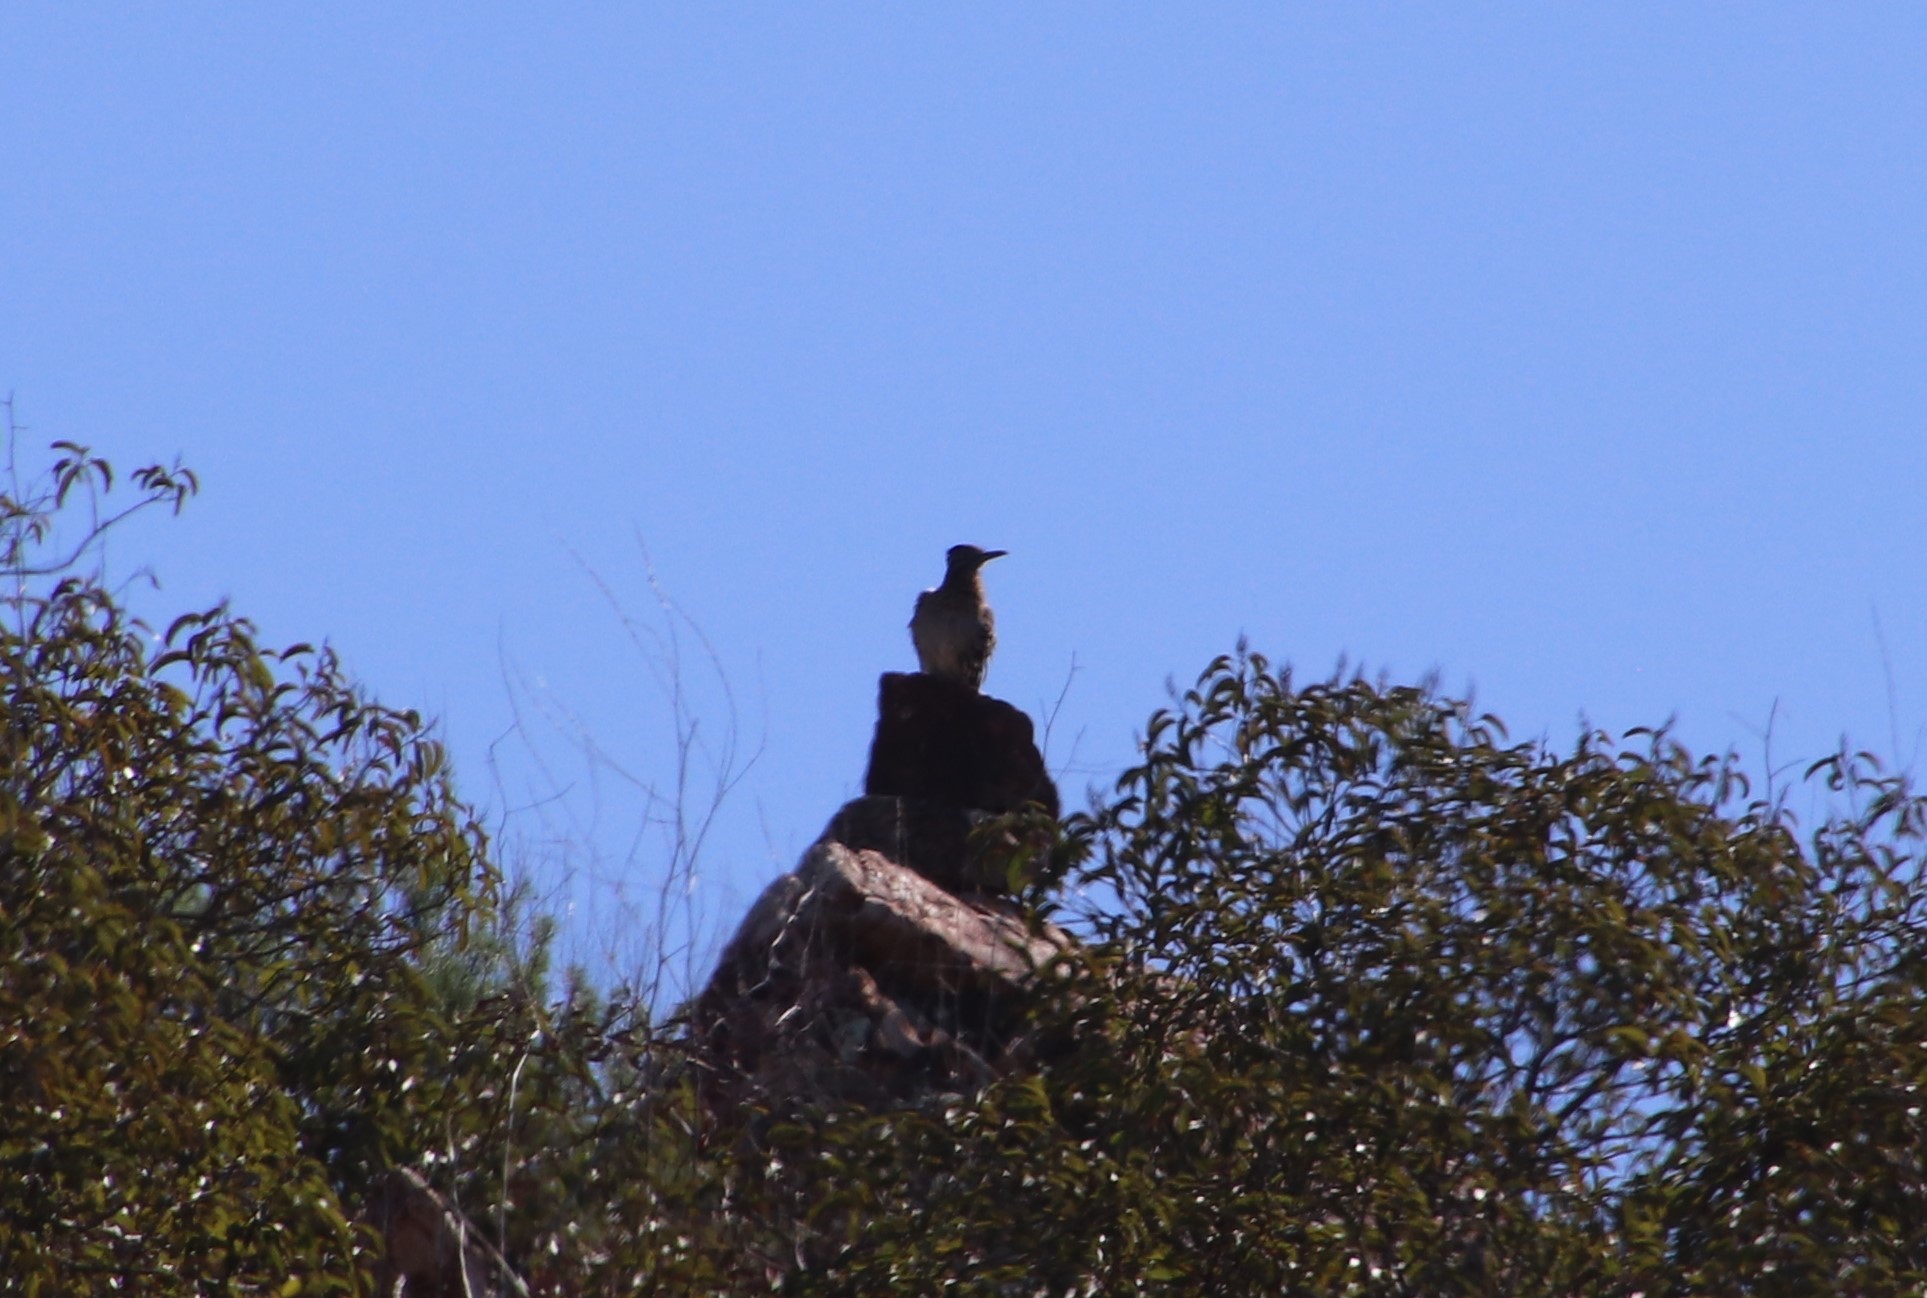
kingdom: Animalia
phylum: Chordata
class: Aves
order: Cuculiformes
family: Cuculidae
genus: Geococcyx
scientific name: Geococcyx californianus
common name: Greater roadrunner
